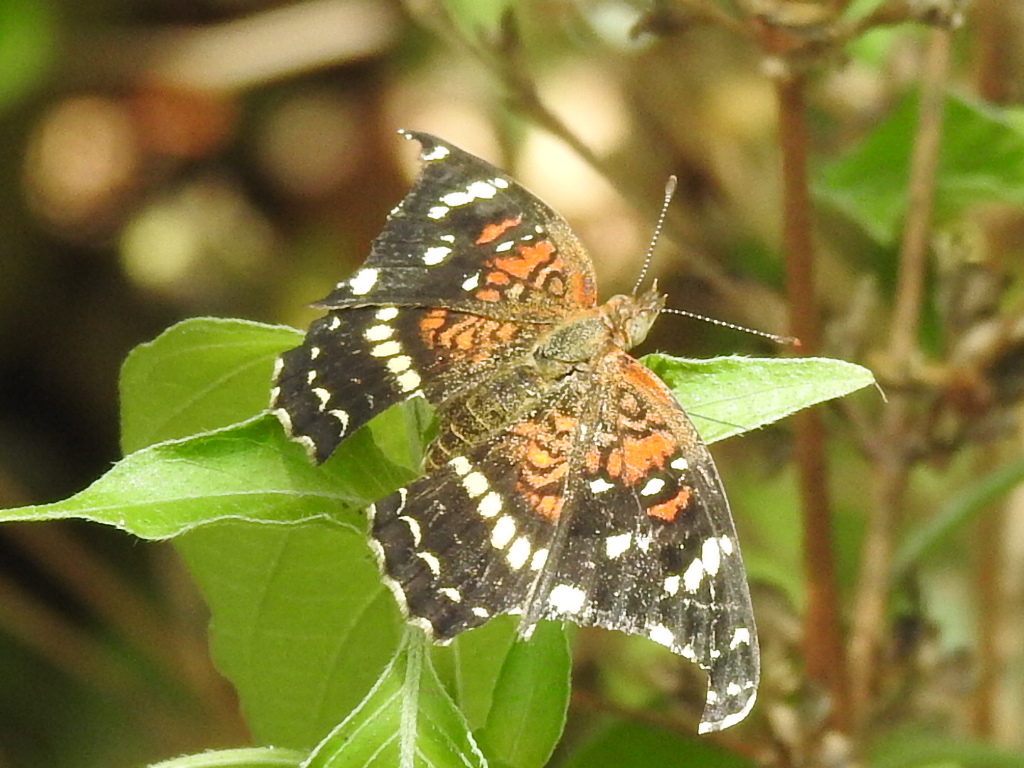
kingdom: Animalia
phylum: Arthropoda
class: Insecta
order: Lepidoptera
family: Nymphalidae
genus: Anthanassa
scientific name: Anthanassa texana
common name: Texan crescent
